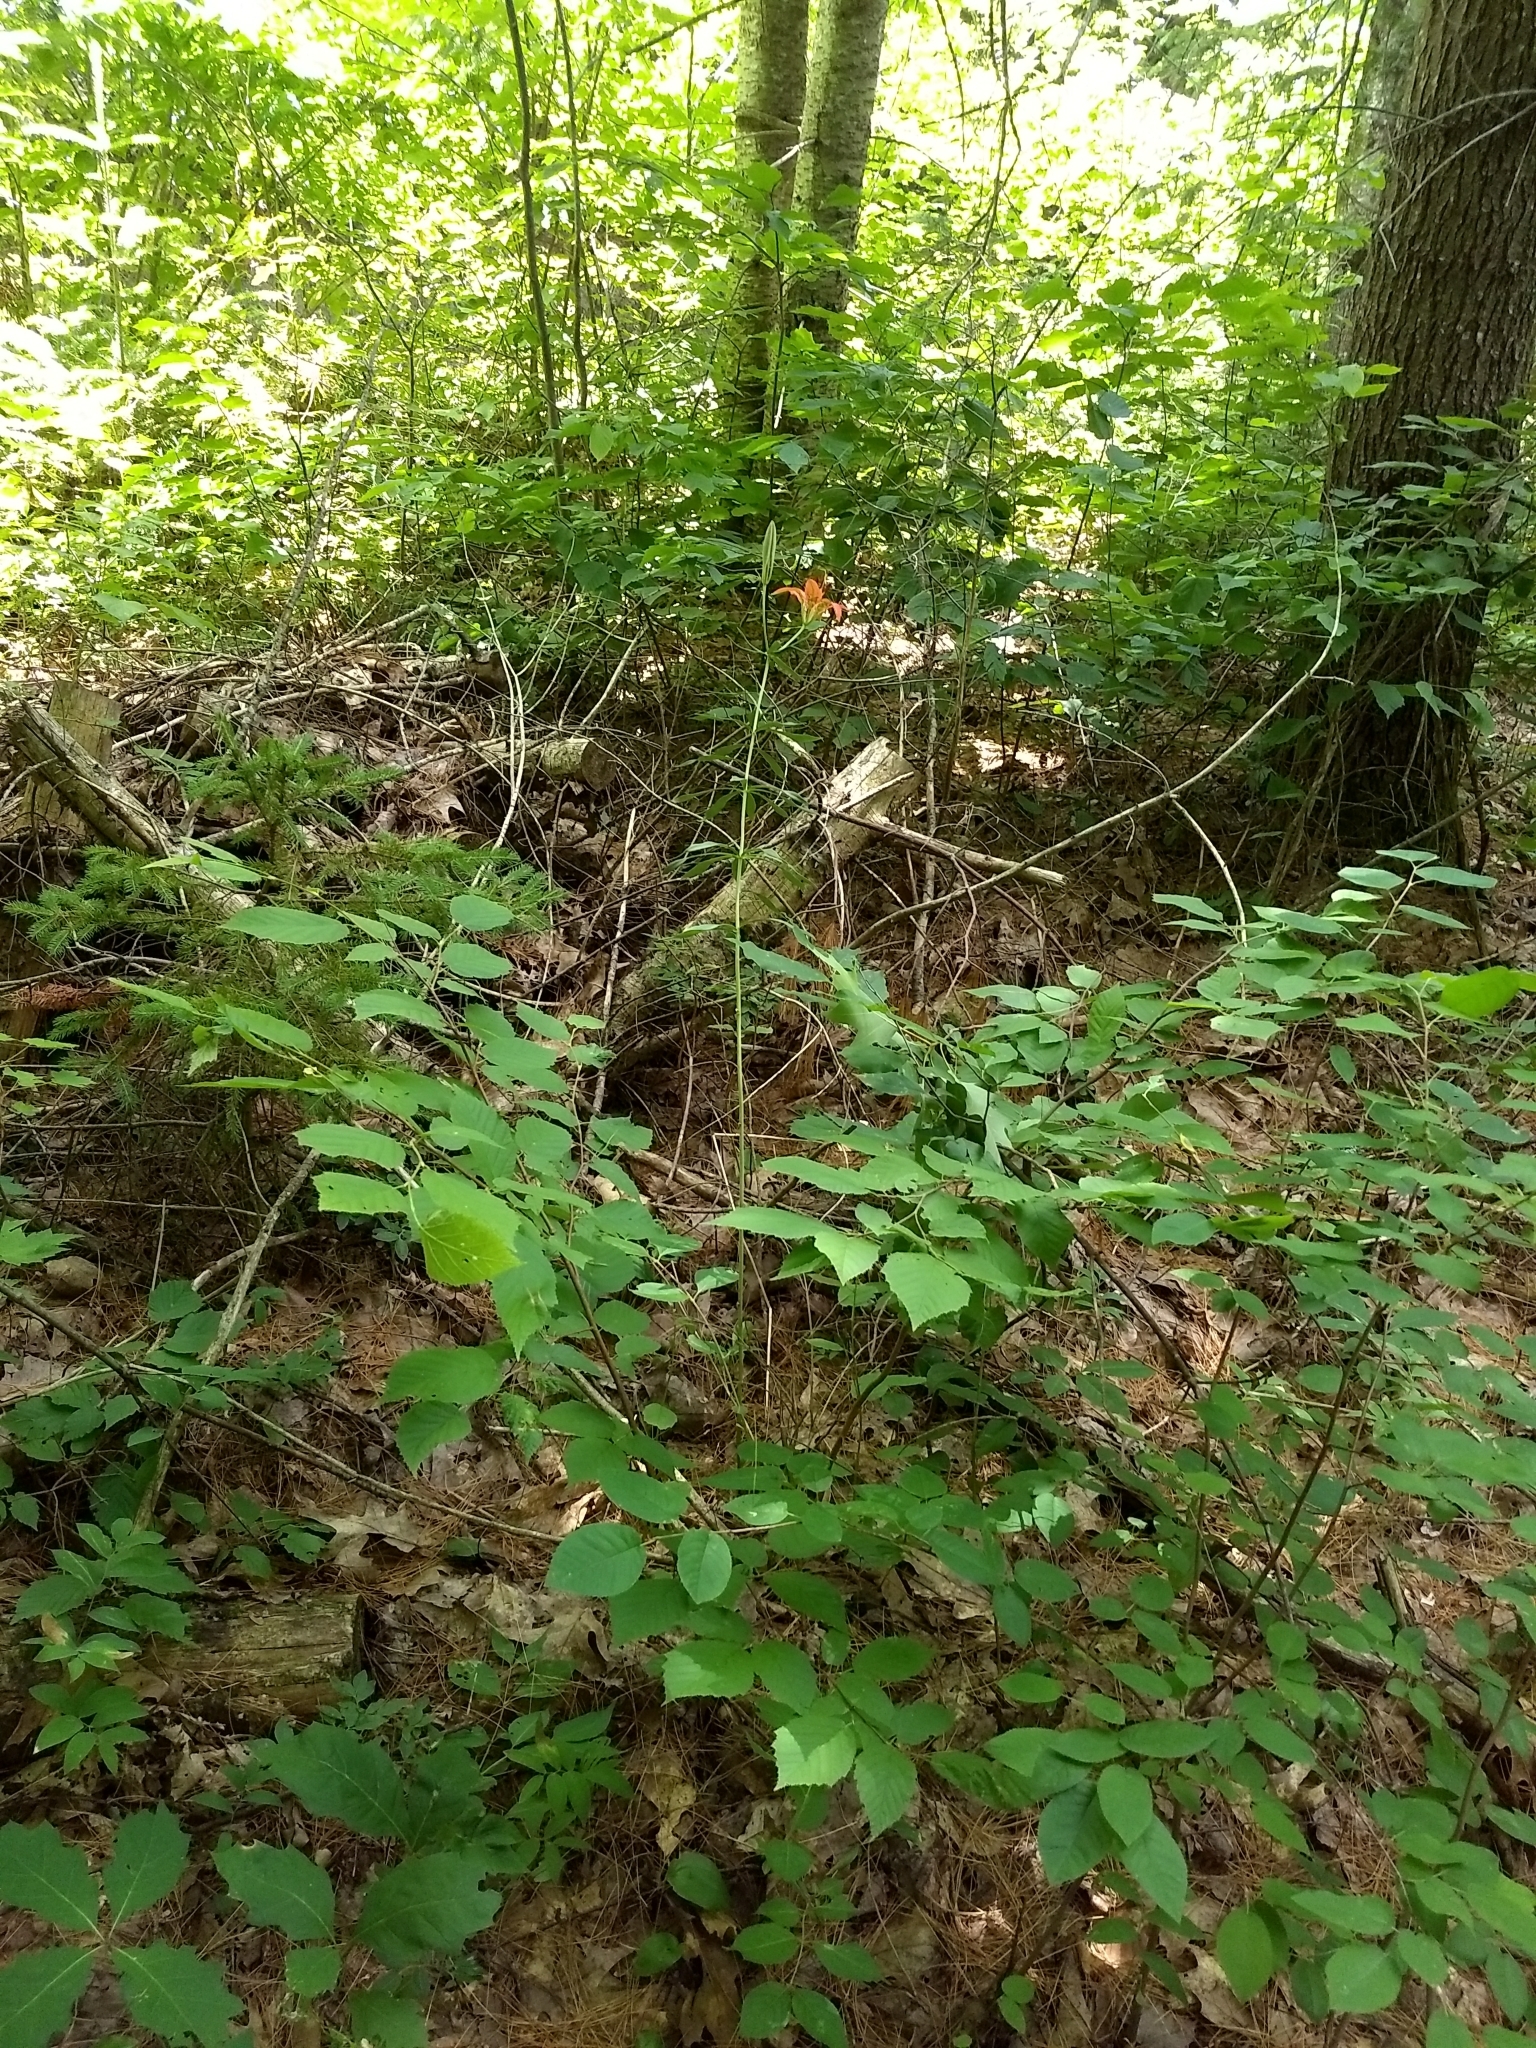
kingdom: Plantae
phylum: Tracheophyta
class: Liliopsida
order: Liliales
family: Liliaceae
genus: Lilium
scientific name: Lilium philadelphicum
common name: Red lily
